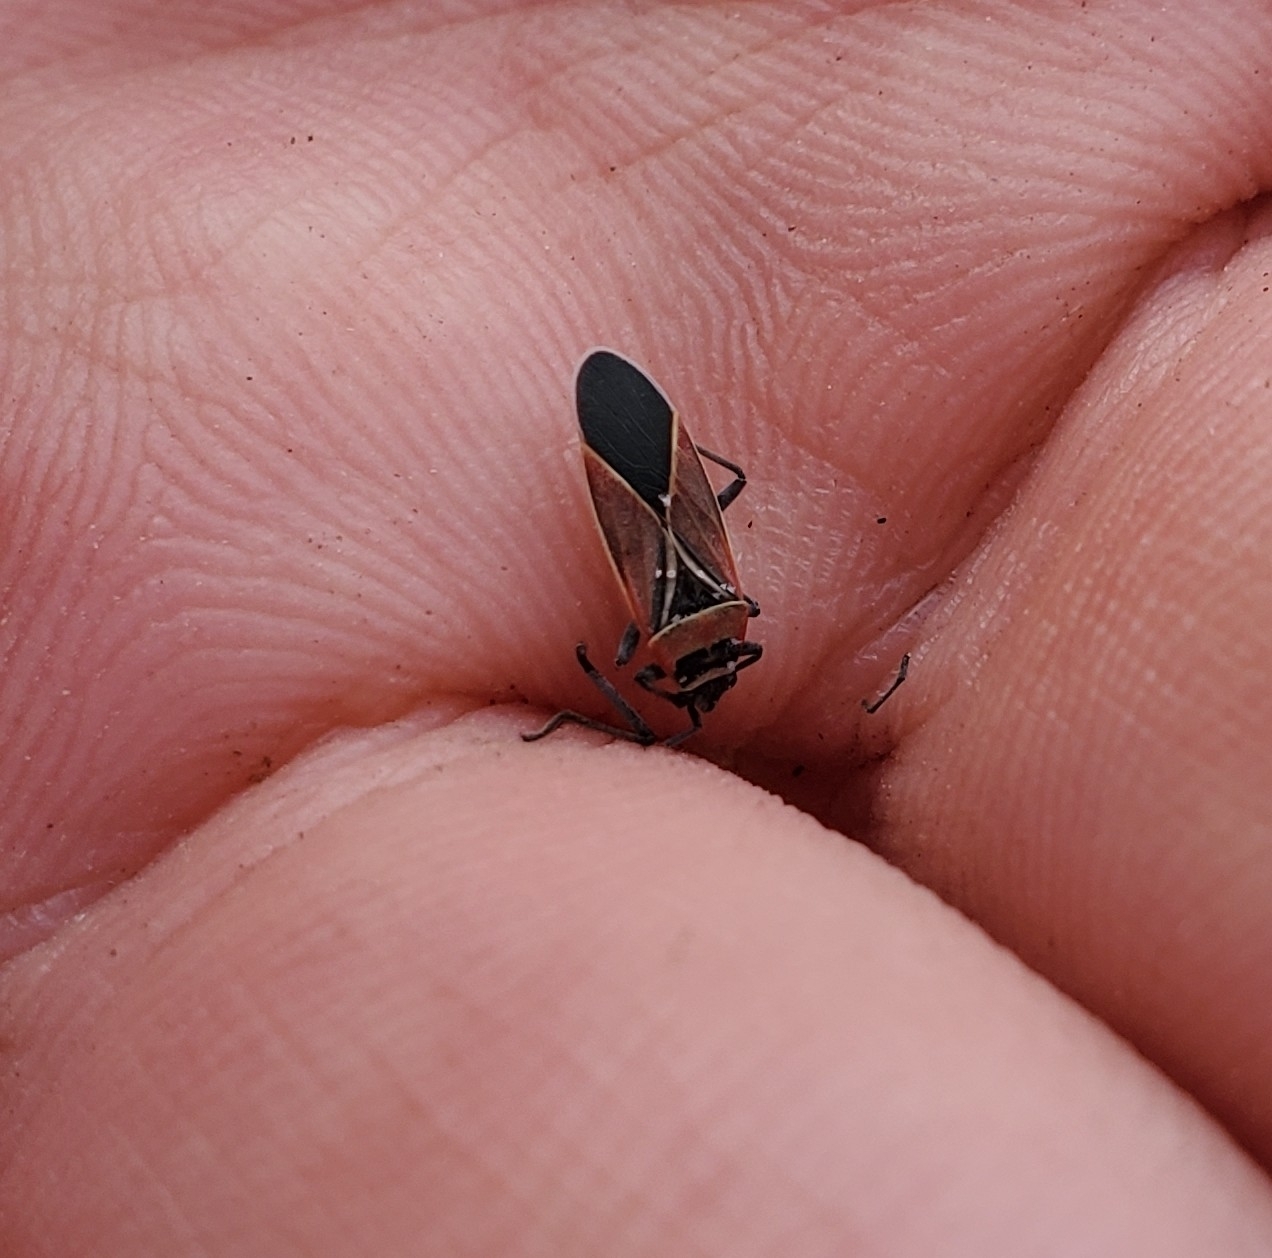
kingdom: Animalia
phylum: Arthropoda
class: Insecta
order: Hemiptera
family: Lygaeidae
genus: Neacoryphus
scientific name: Neacoryphus bicrucis
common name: Lygaeid bug
